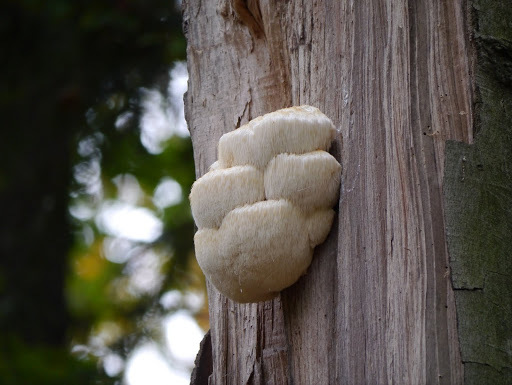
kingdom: Fungi
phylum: Basidiomycota
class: Agaricomycetes
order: Russulales
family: Hericiaceae
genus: Hericium
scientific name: Hericium erinaceus
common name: Bearded tooth
